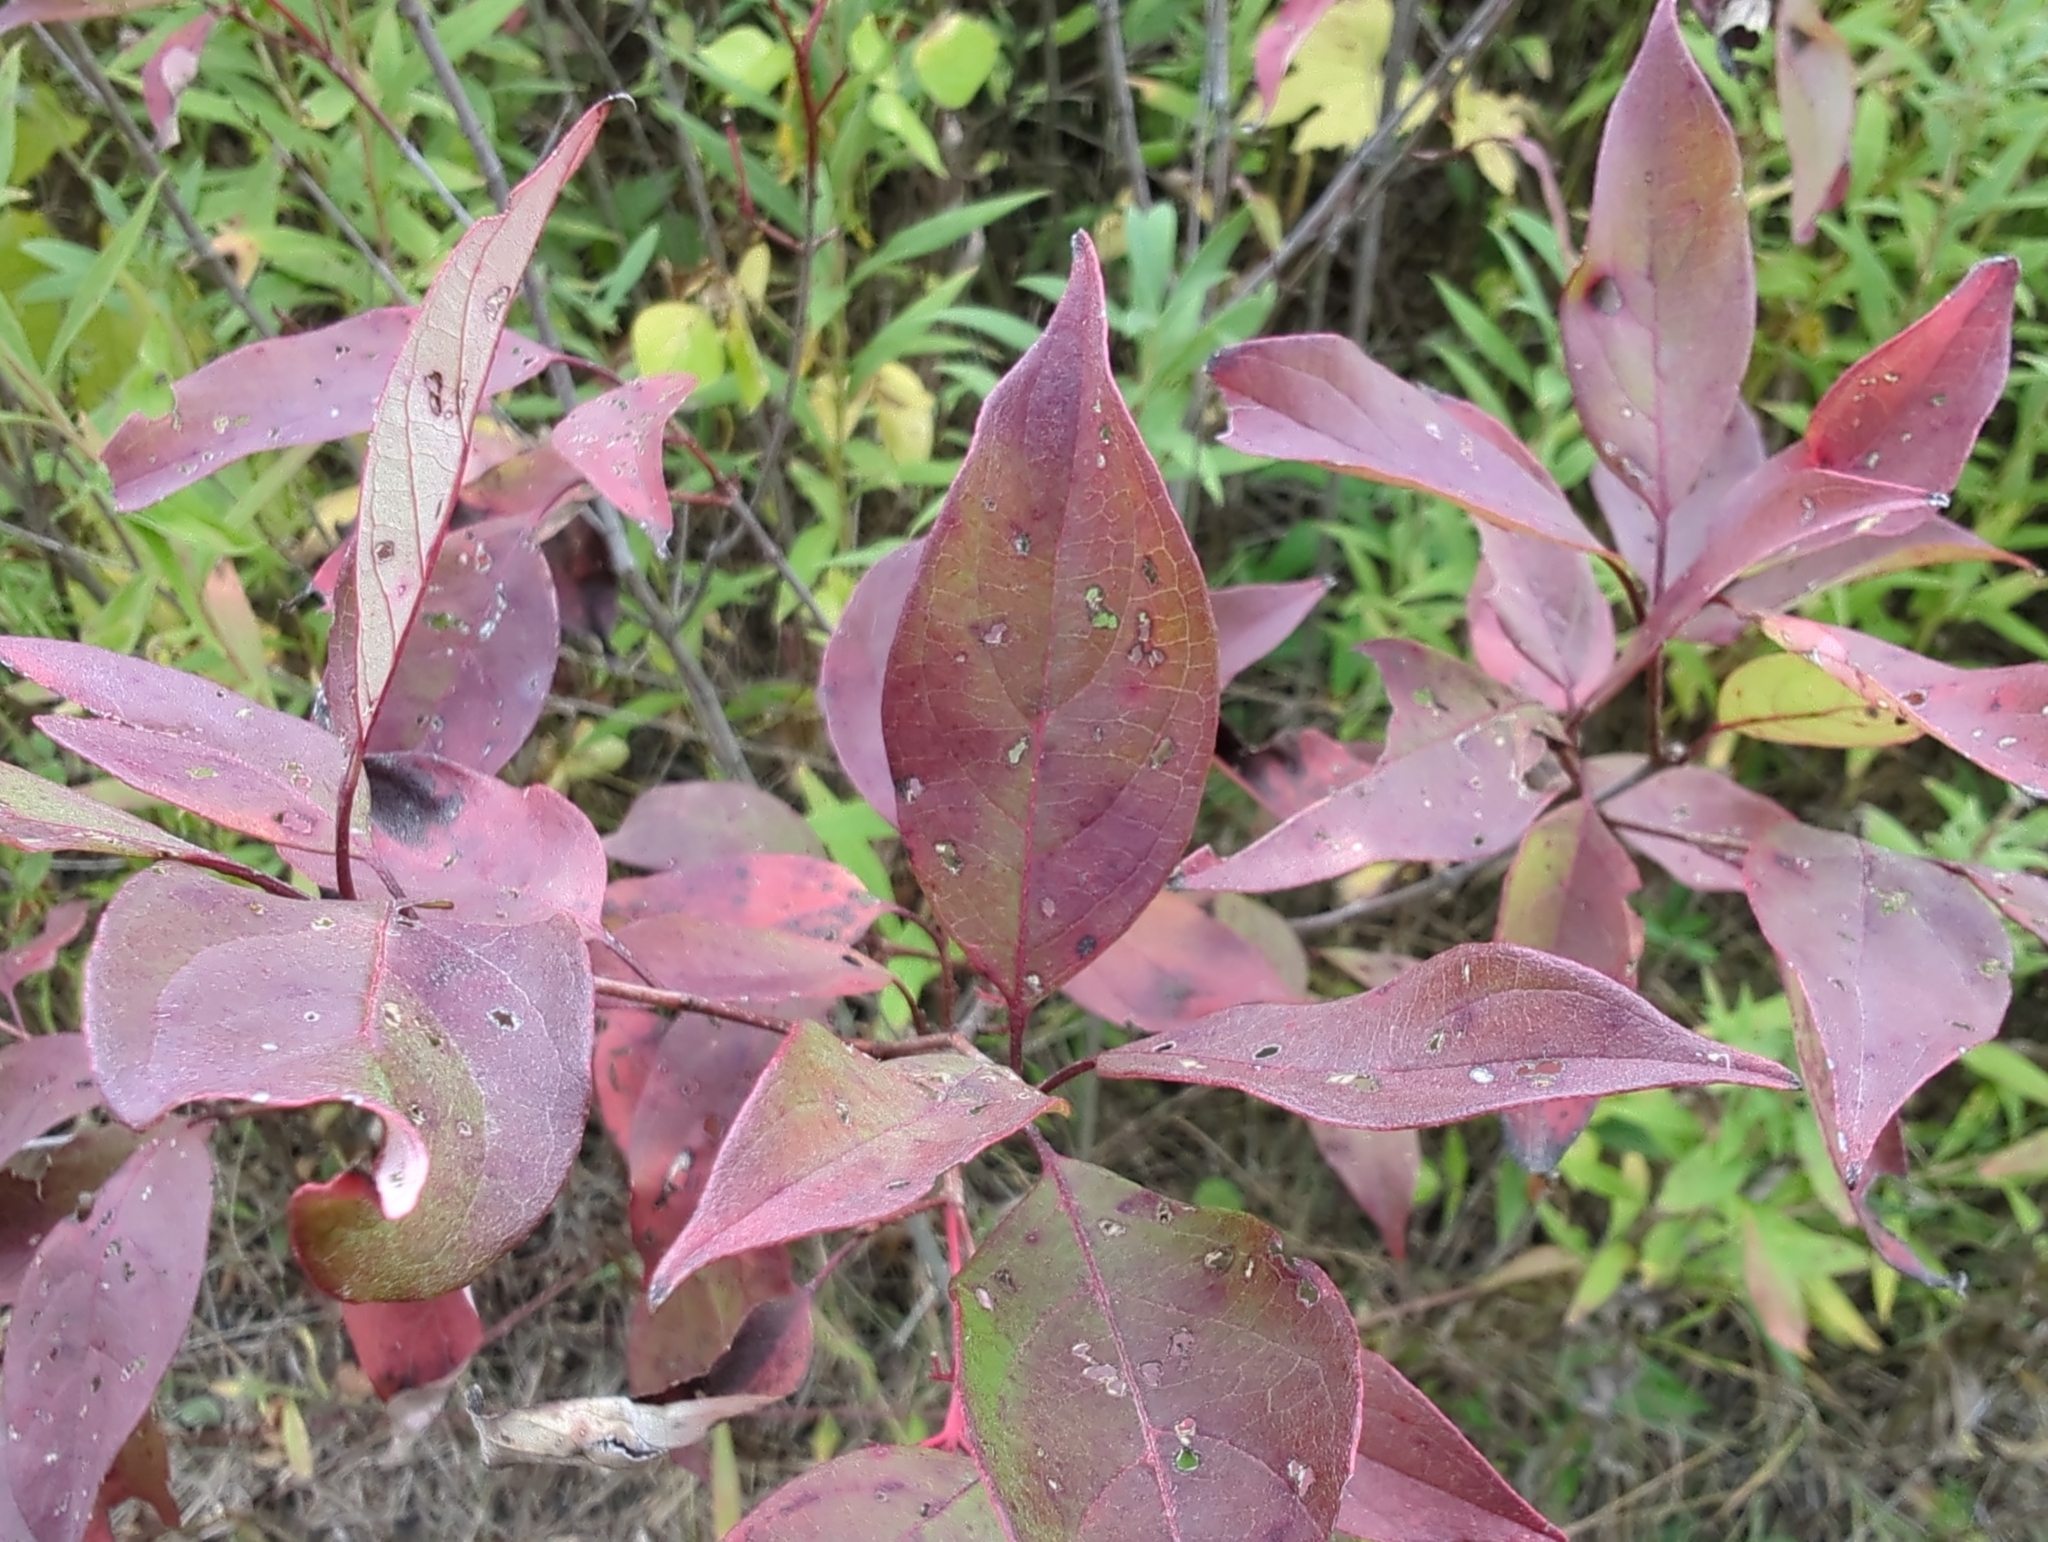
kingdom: Plantae
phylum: Tracheophyta
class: Magnoliopsida
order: Cornales
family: Cornaceae
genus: Cornus
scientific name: Cornus racemosa
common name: Panicled dogwood
